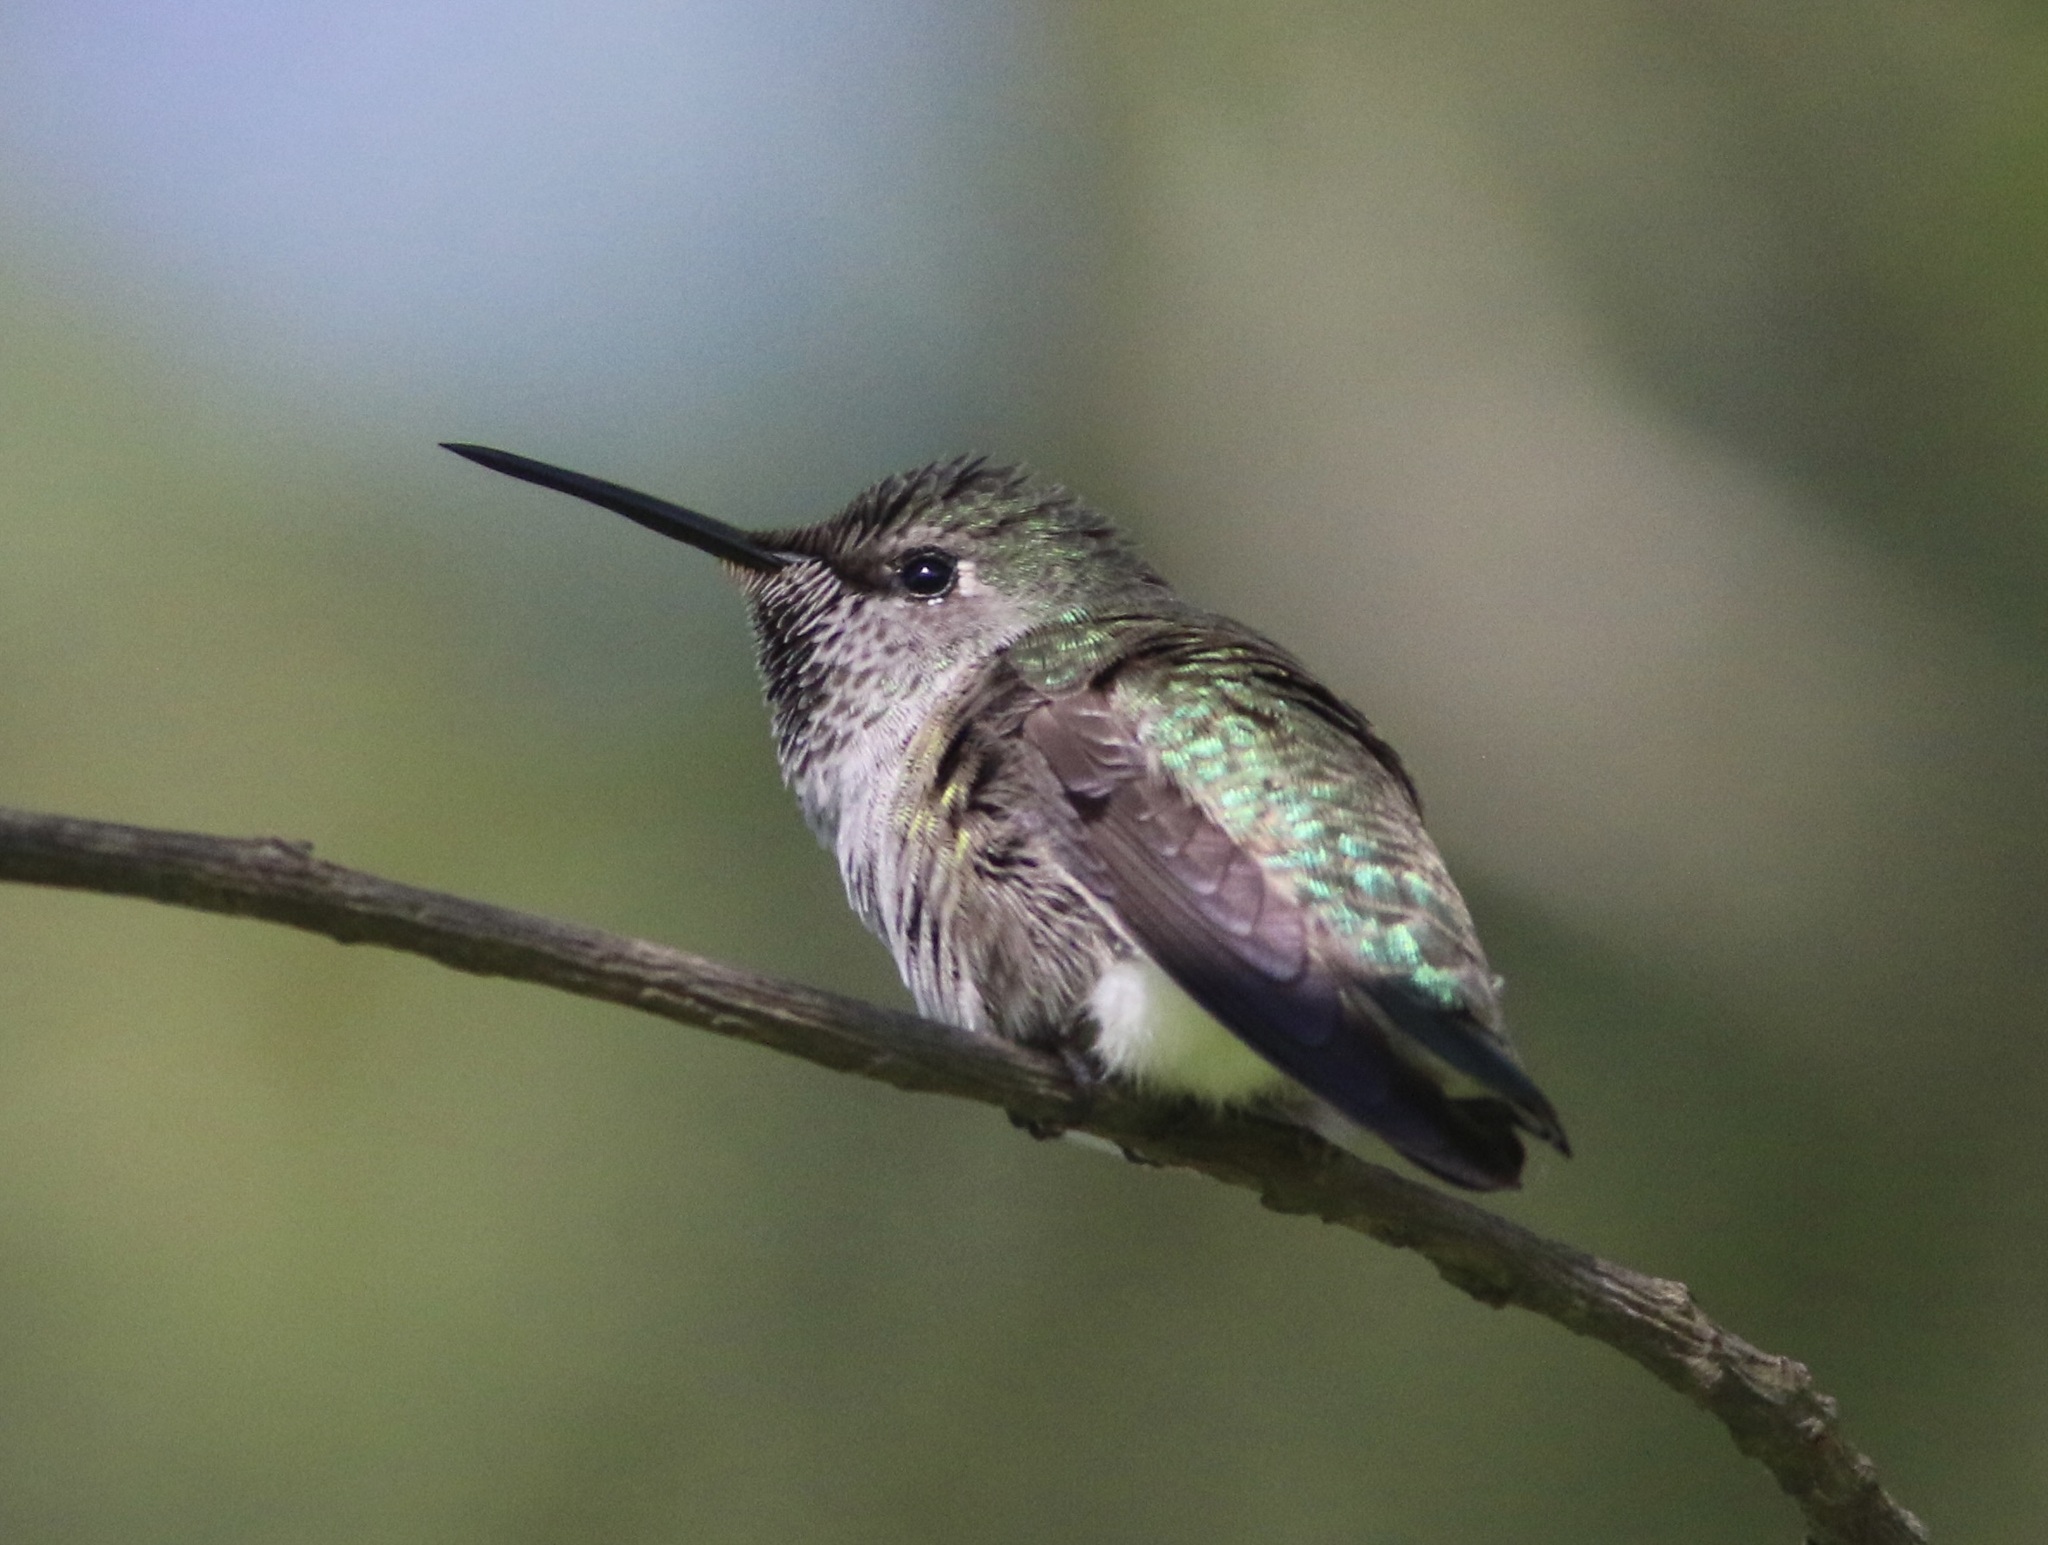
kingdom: Animalia
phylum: Chordata
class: Aves
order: Apodiformes
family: Trochilidae
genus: Calypte
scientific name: Calypte anna
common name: Anna's hummingbird
